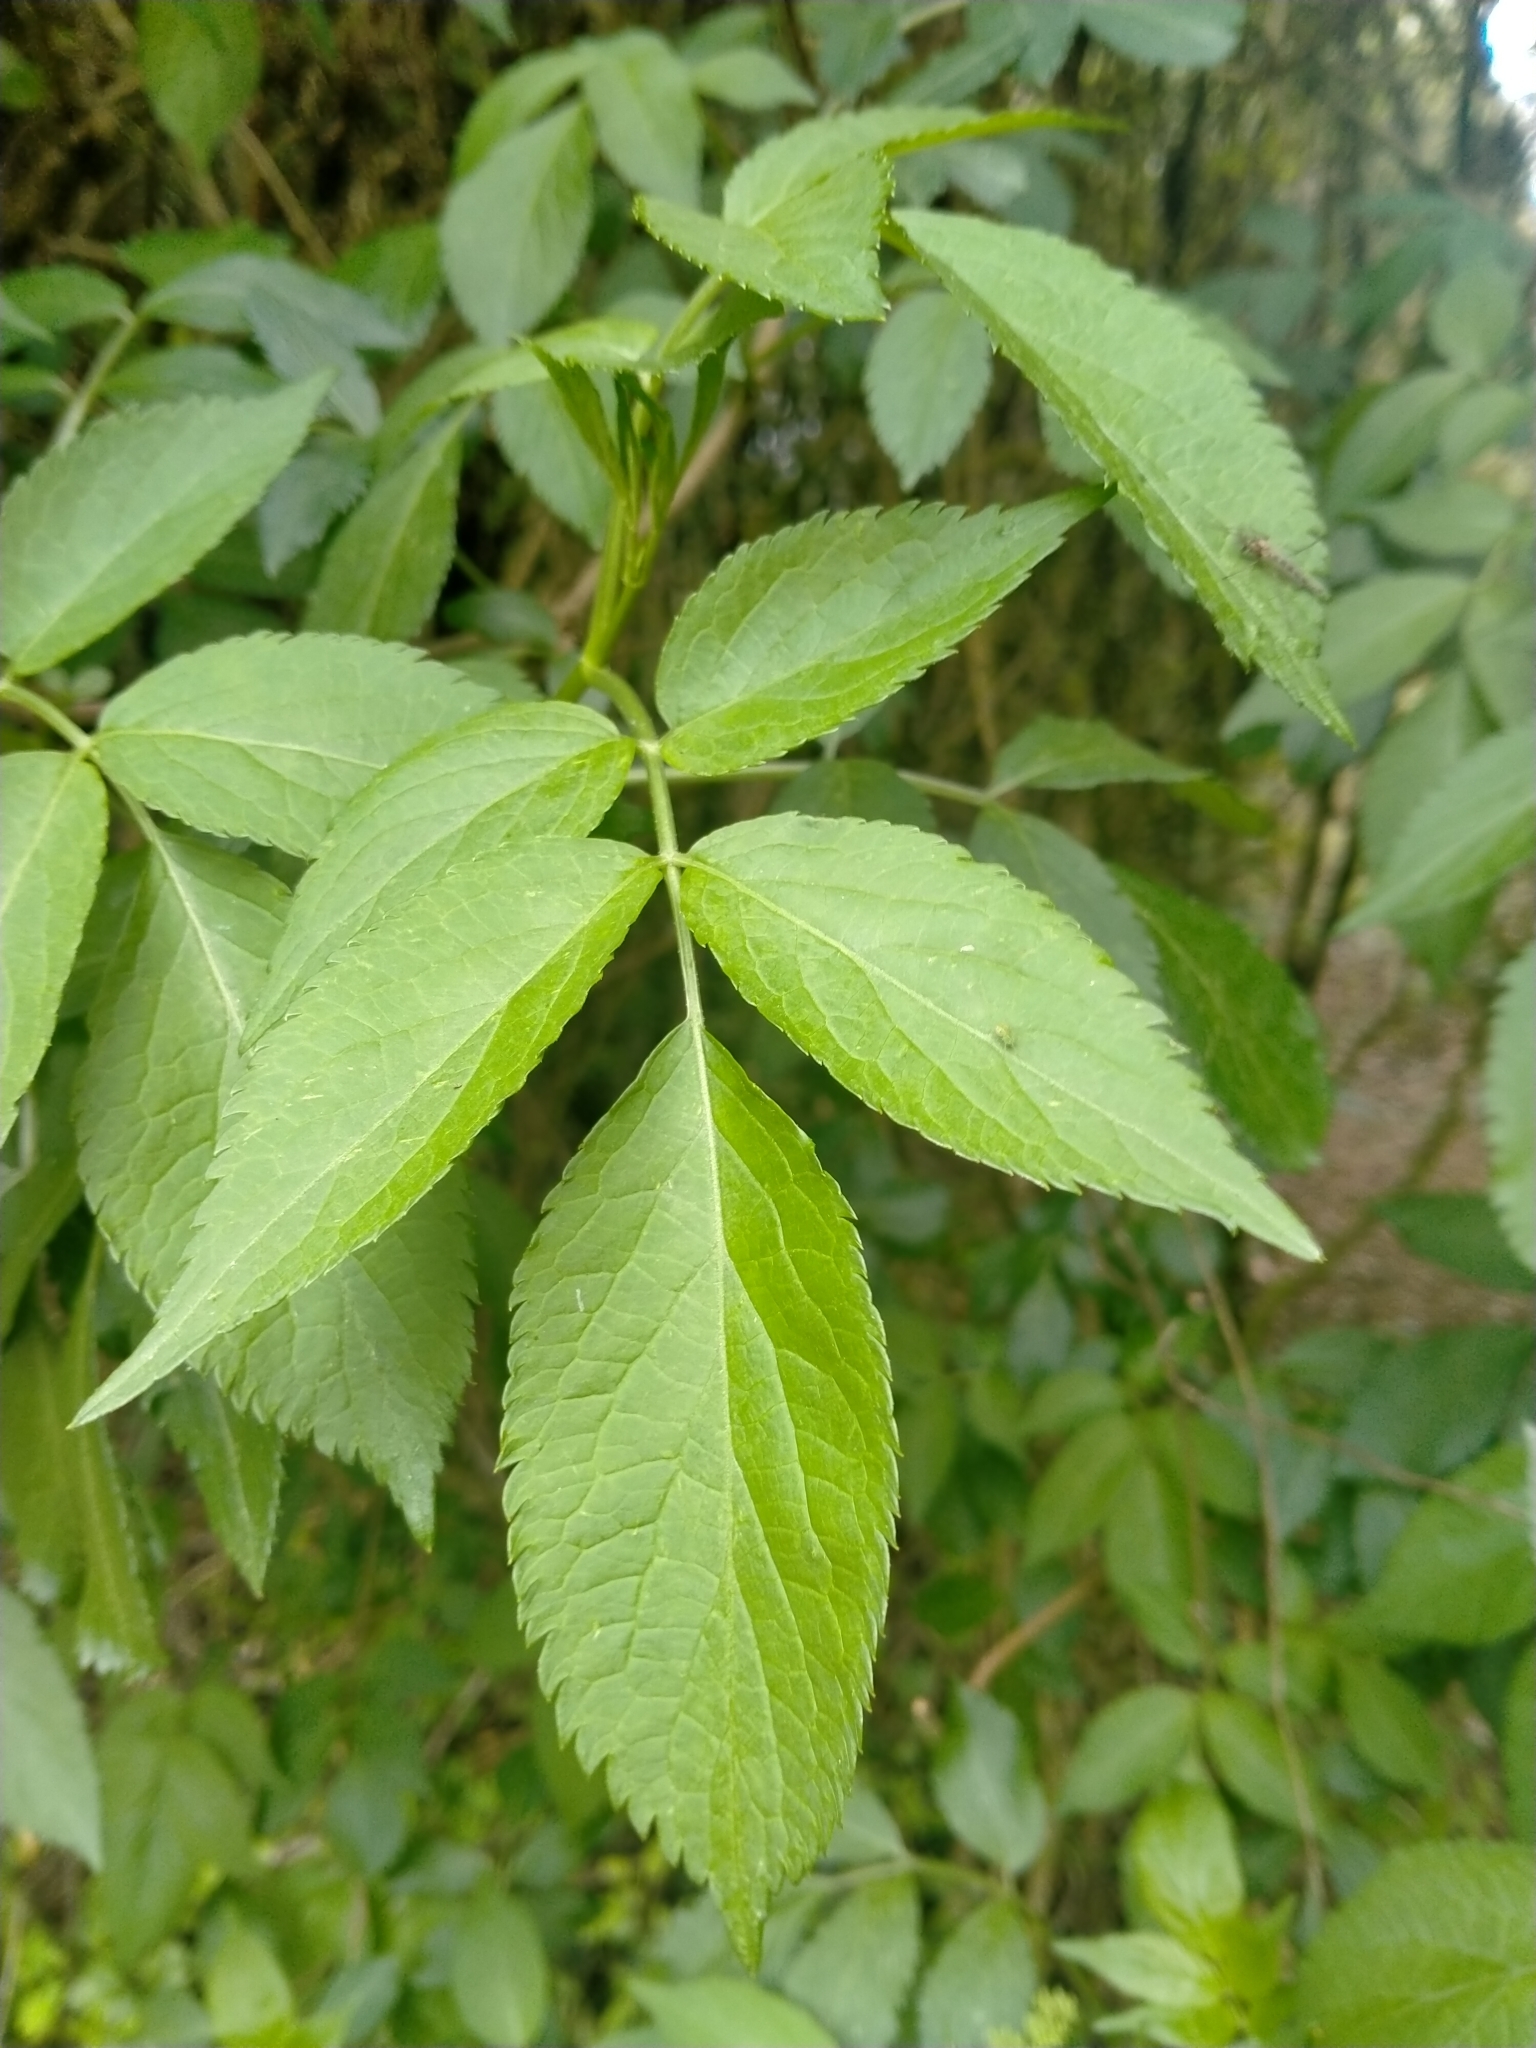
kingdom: Plantae
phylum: Tracheophyta
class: Magnoliopsida
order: Dipsacales
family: Viburnaceae
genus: Sambucus
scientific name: Sambucus nigra
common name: Elder
